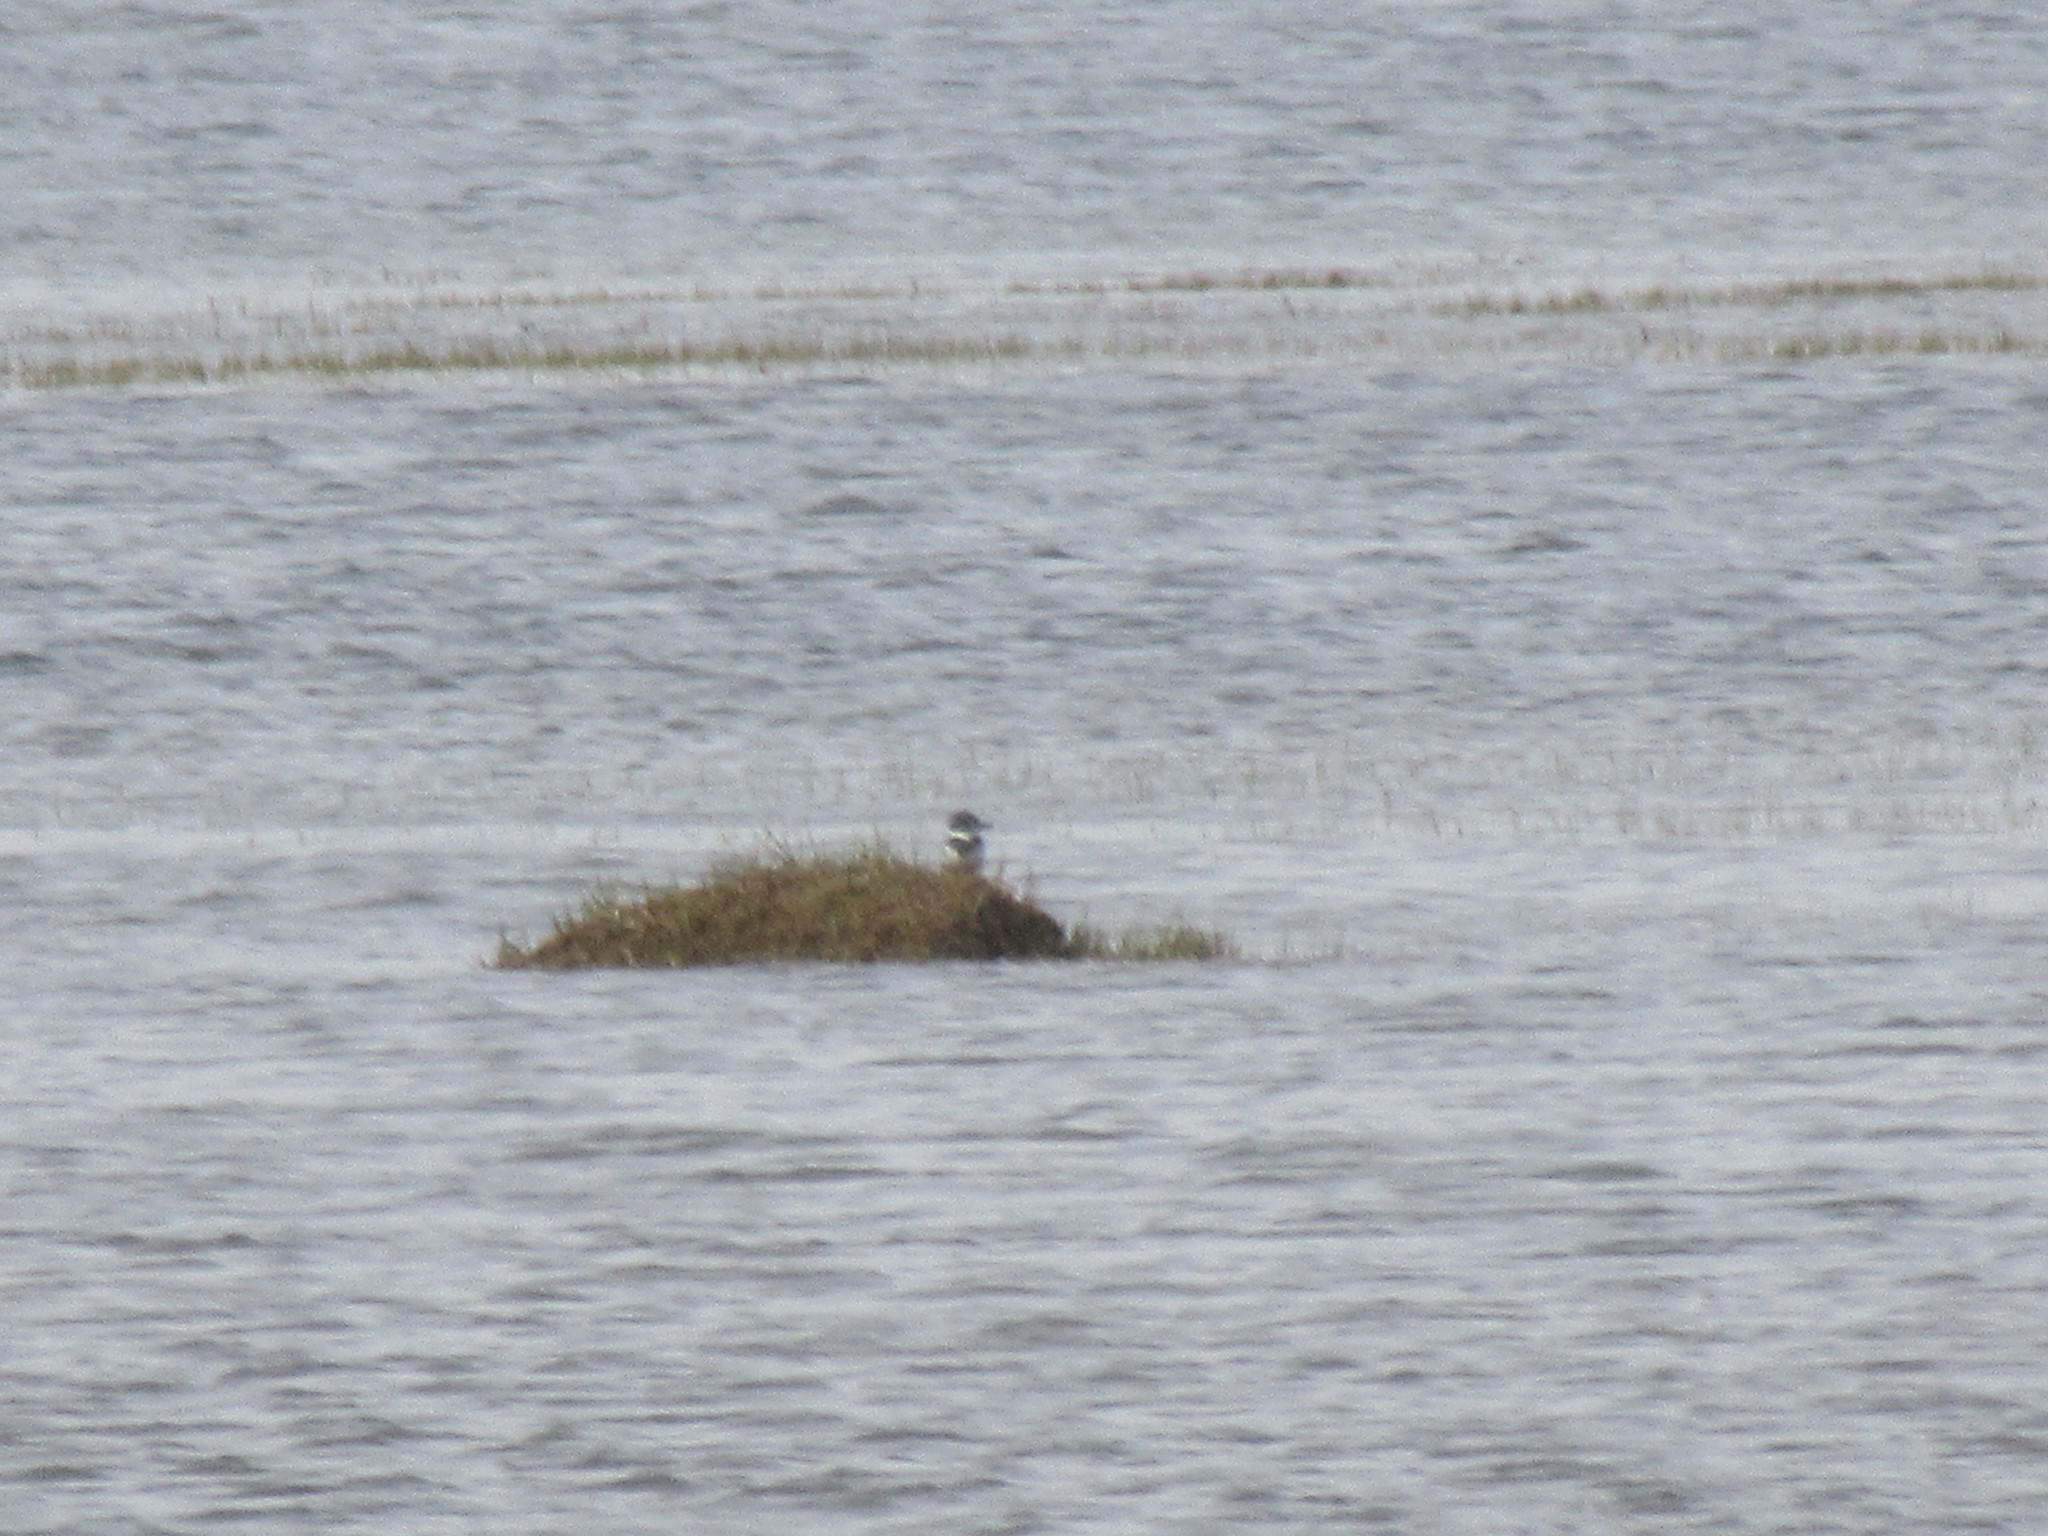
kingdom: Animalia
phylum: Chordata
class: Aves
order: Coraciiformes
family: Alcedinidae
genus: Megaceryle
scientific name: Megaceryle alcyon
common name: Belted kingfisher
